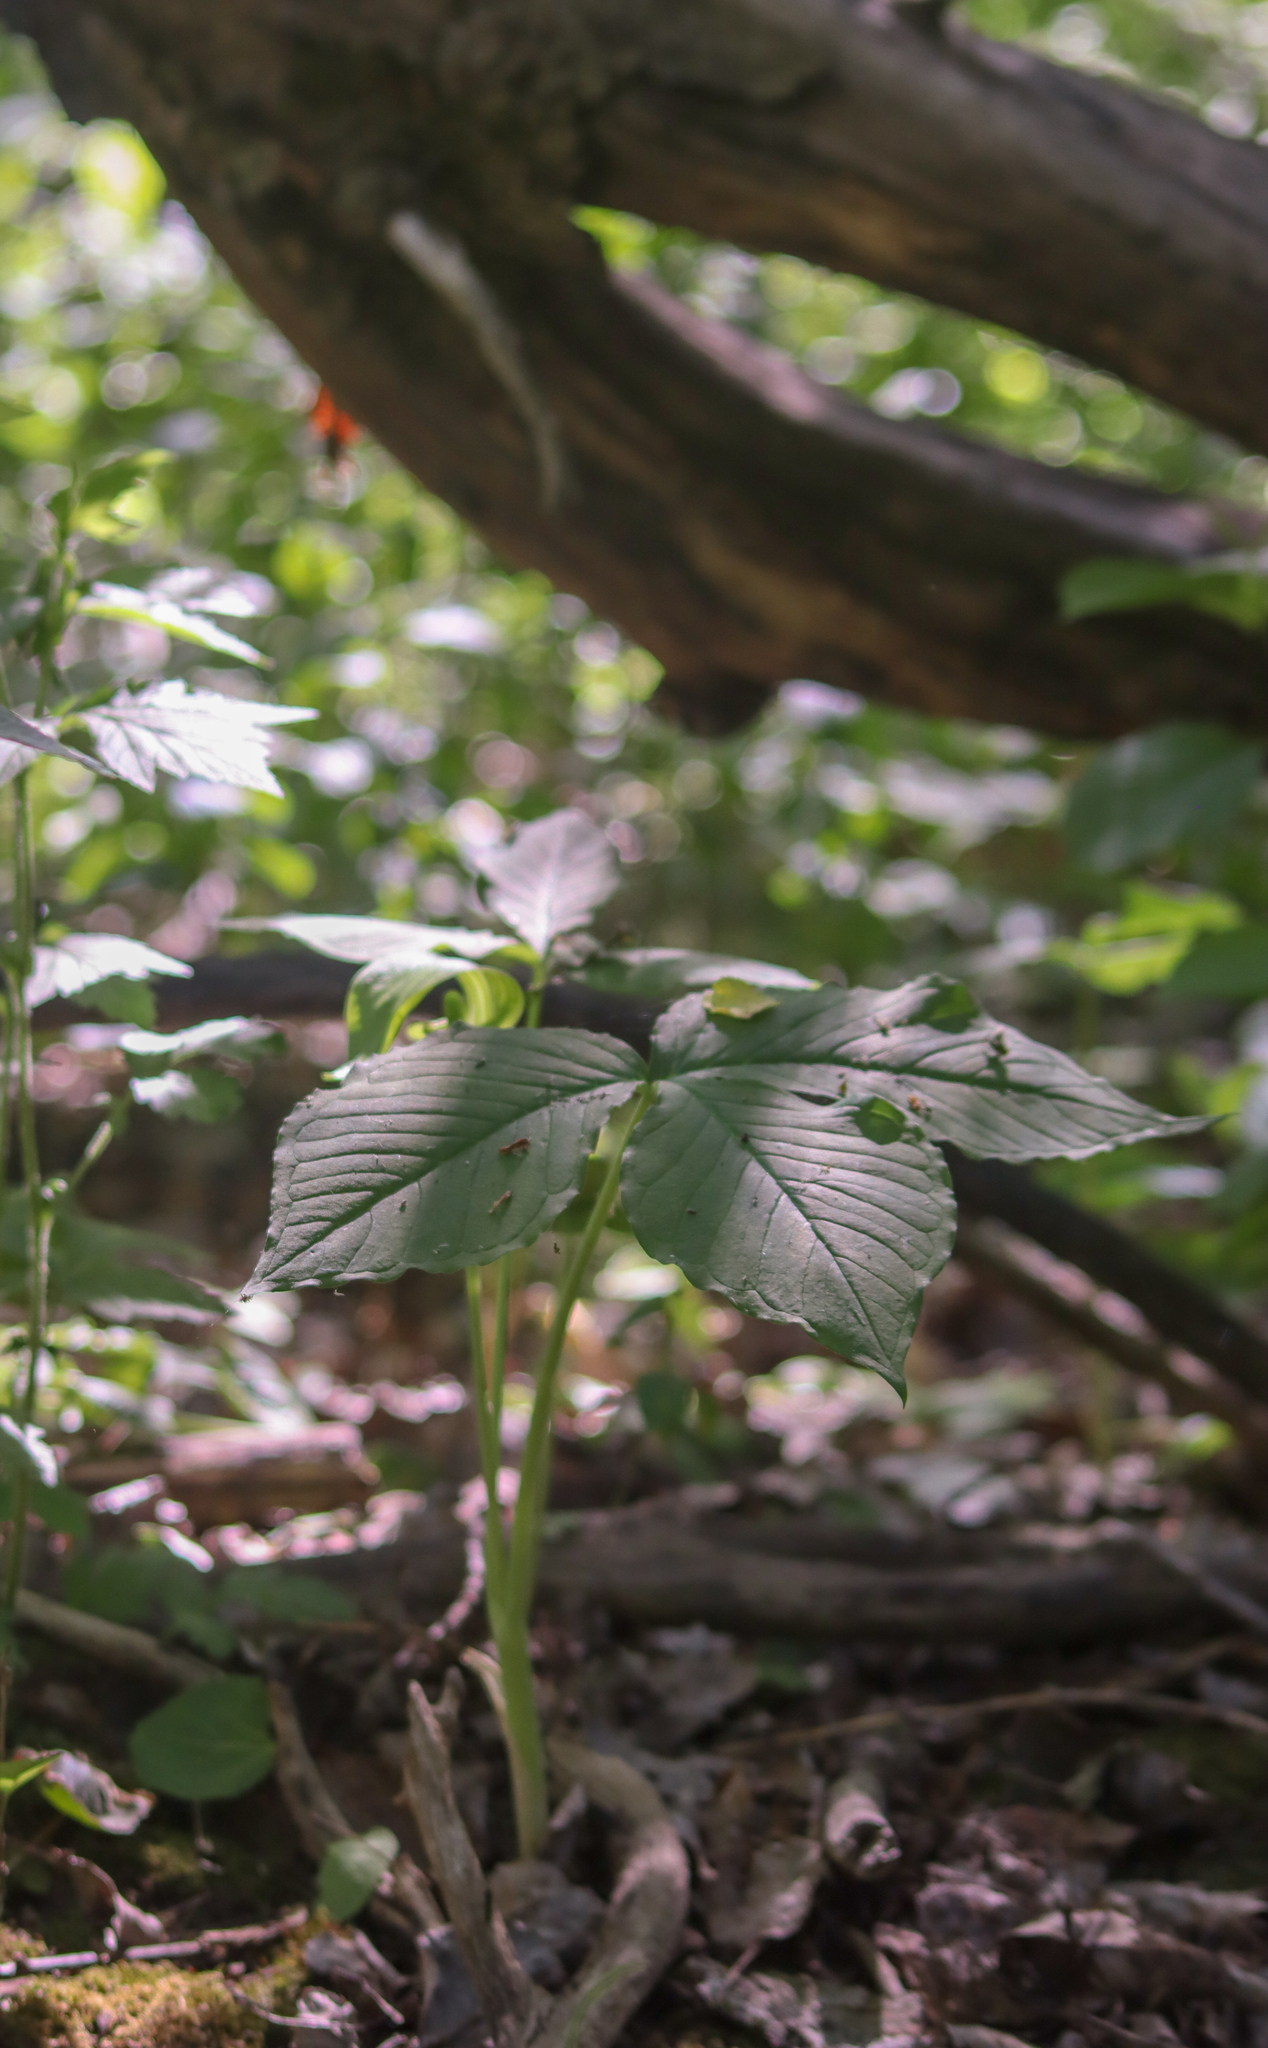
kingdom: Plantae
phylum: Tracheophyta
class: Liliopsida
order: Alismatales
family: Araceae
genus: Arisaema
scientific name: Arisaema triphyllum
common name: Jack-in-the-pulpit
